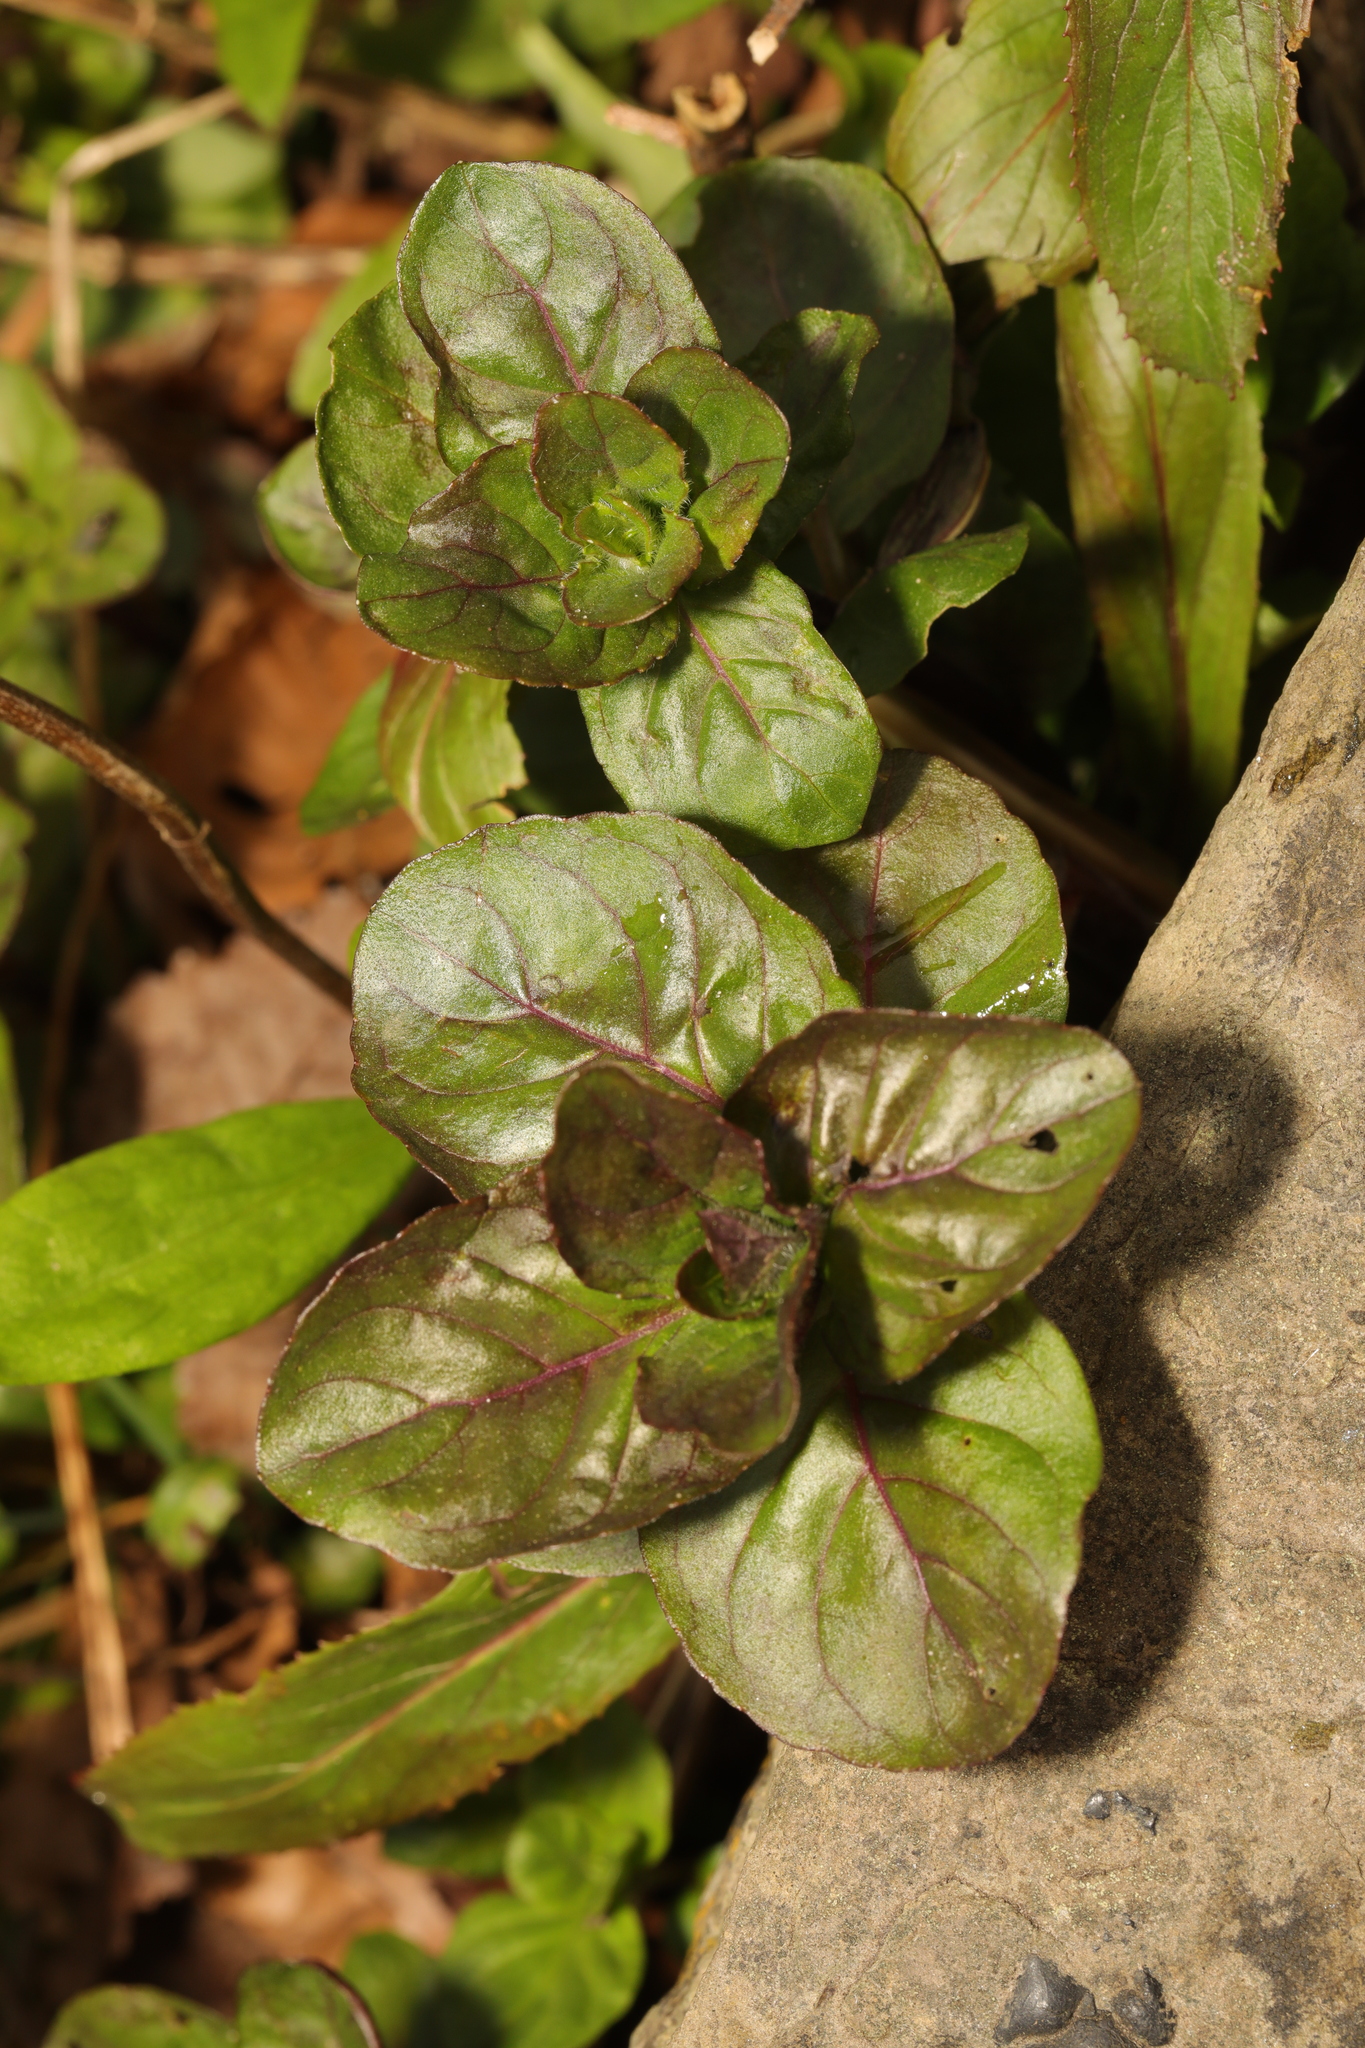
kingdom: Plantae
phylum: Tracheophyta
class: Magnoliopsida
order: Lamiales
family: Lamiaceae
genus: Mentha
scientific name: Mentha aquatica
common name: Water mint
